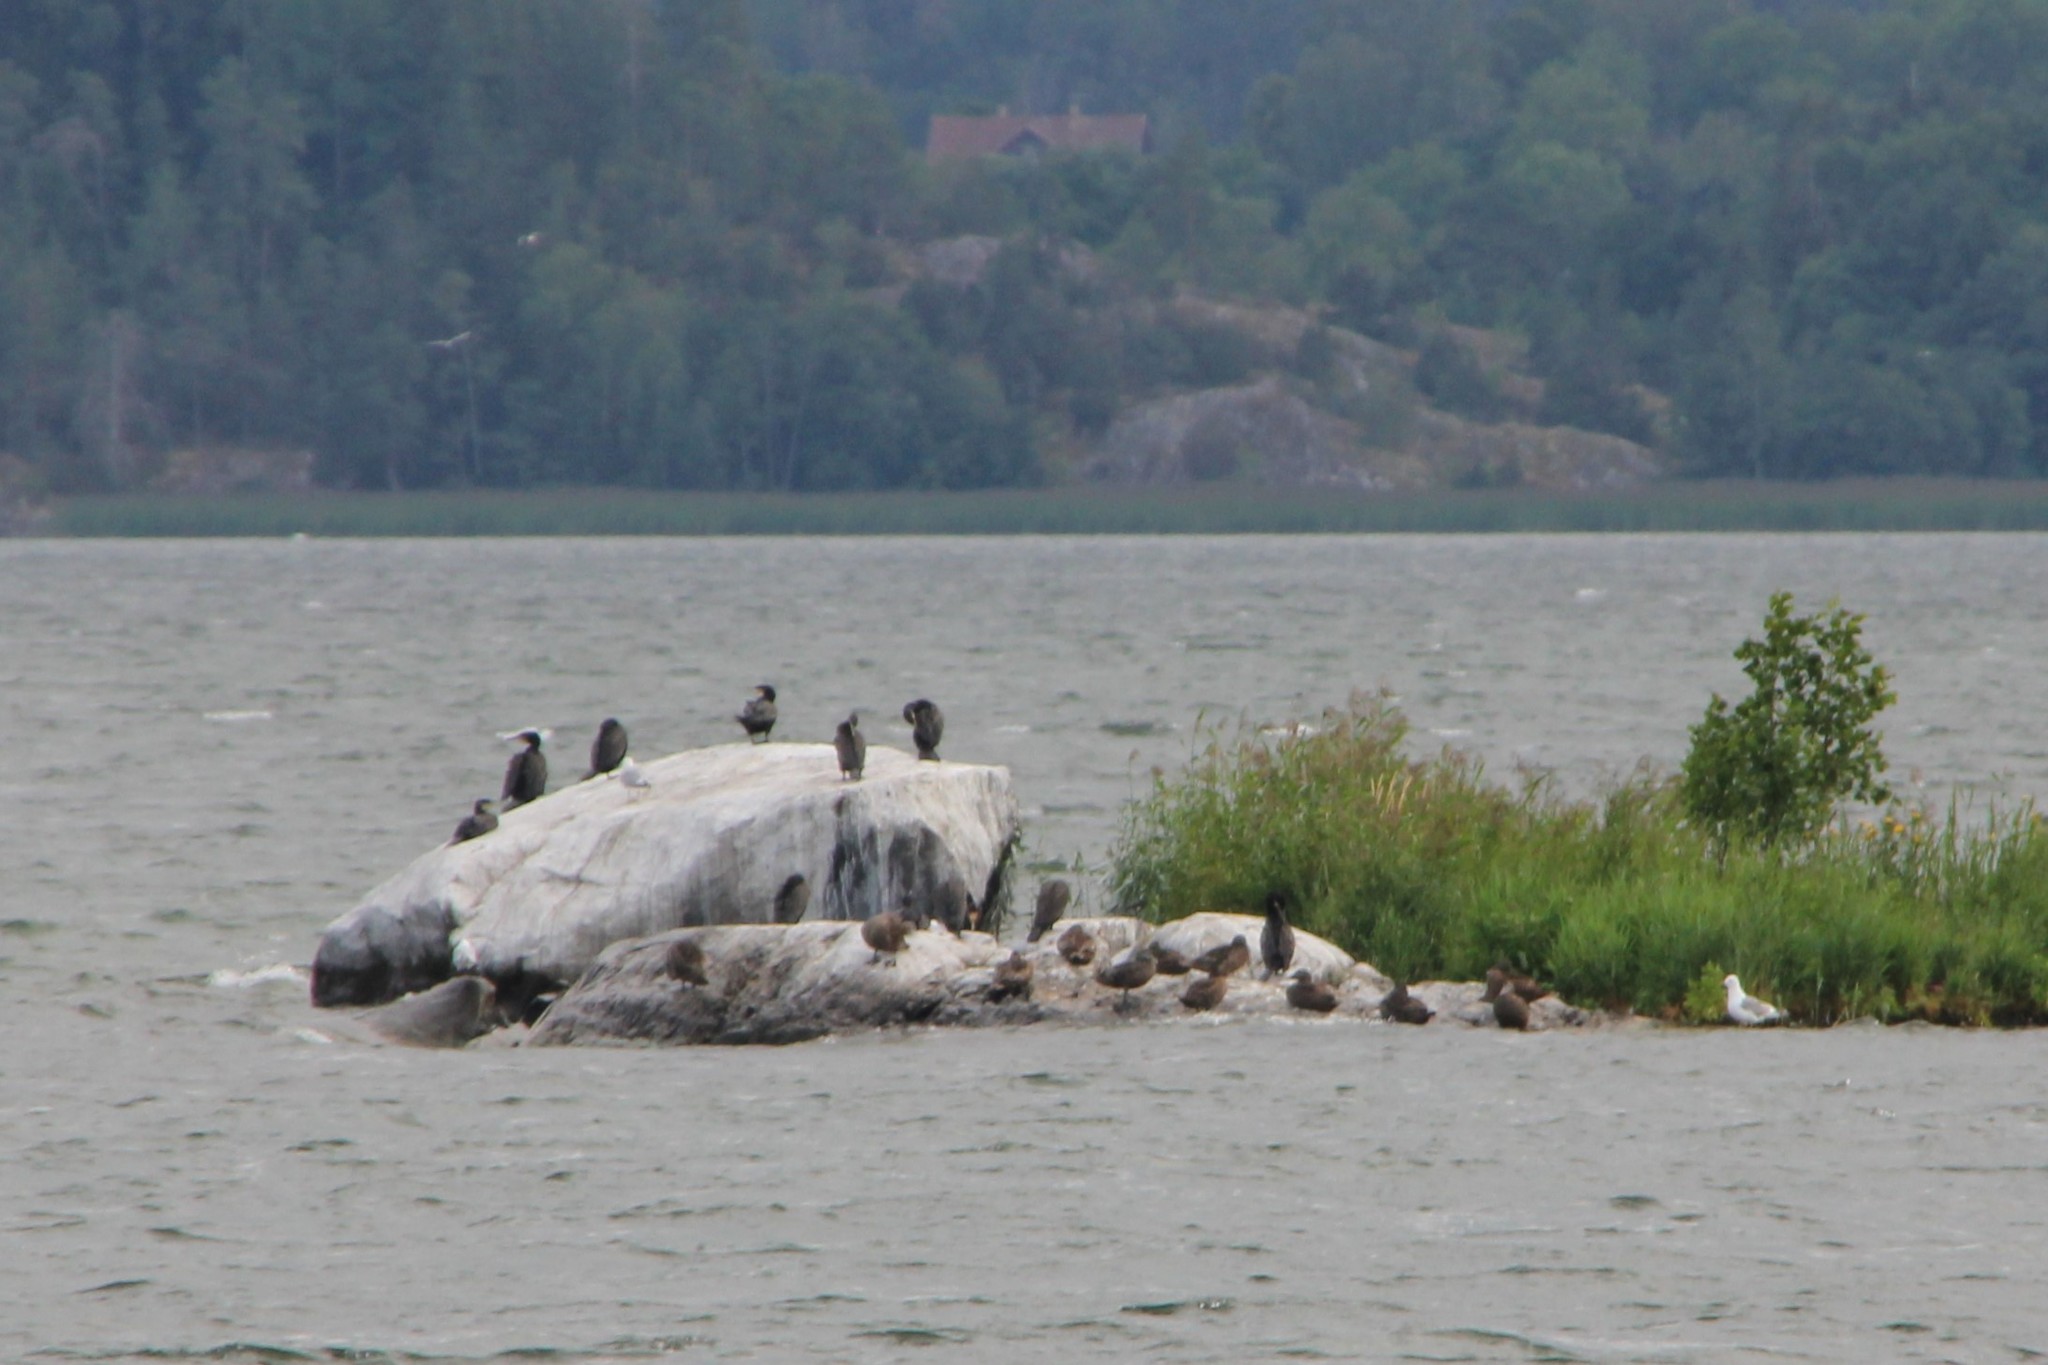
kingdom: Animalia
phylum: Chordata
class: Aves
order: Suliformes
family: Phalacrocoracidae
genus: Phalacrocorax
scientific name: Phalacrocorax carbo
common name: Great cormorant
